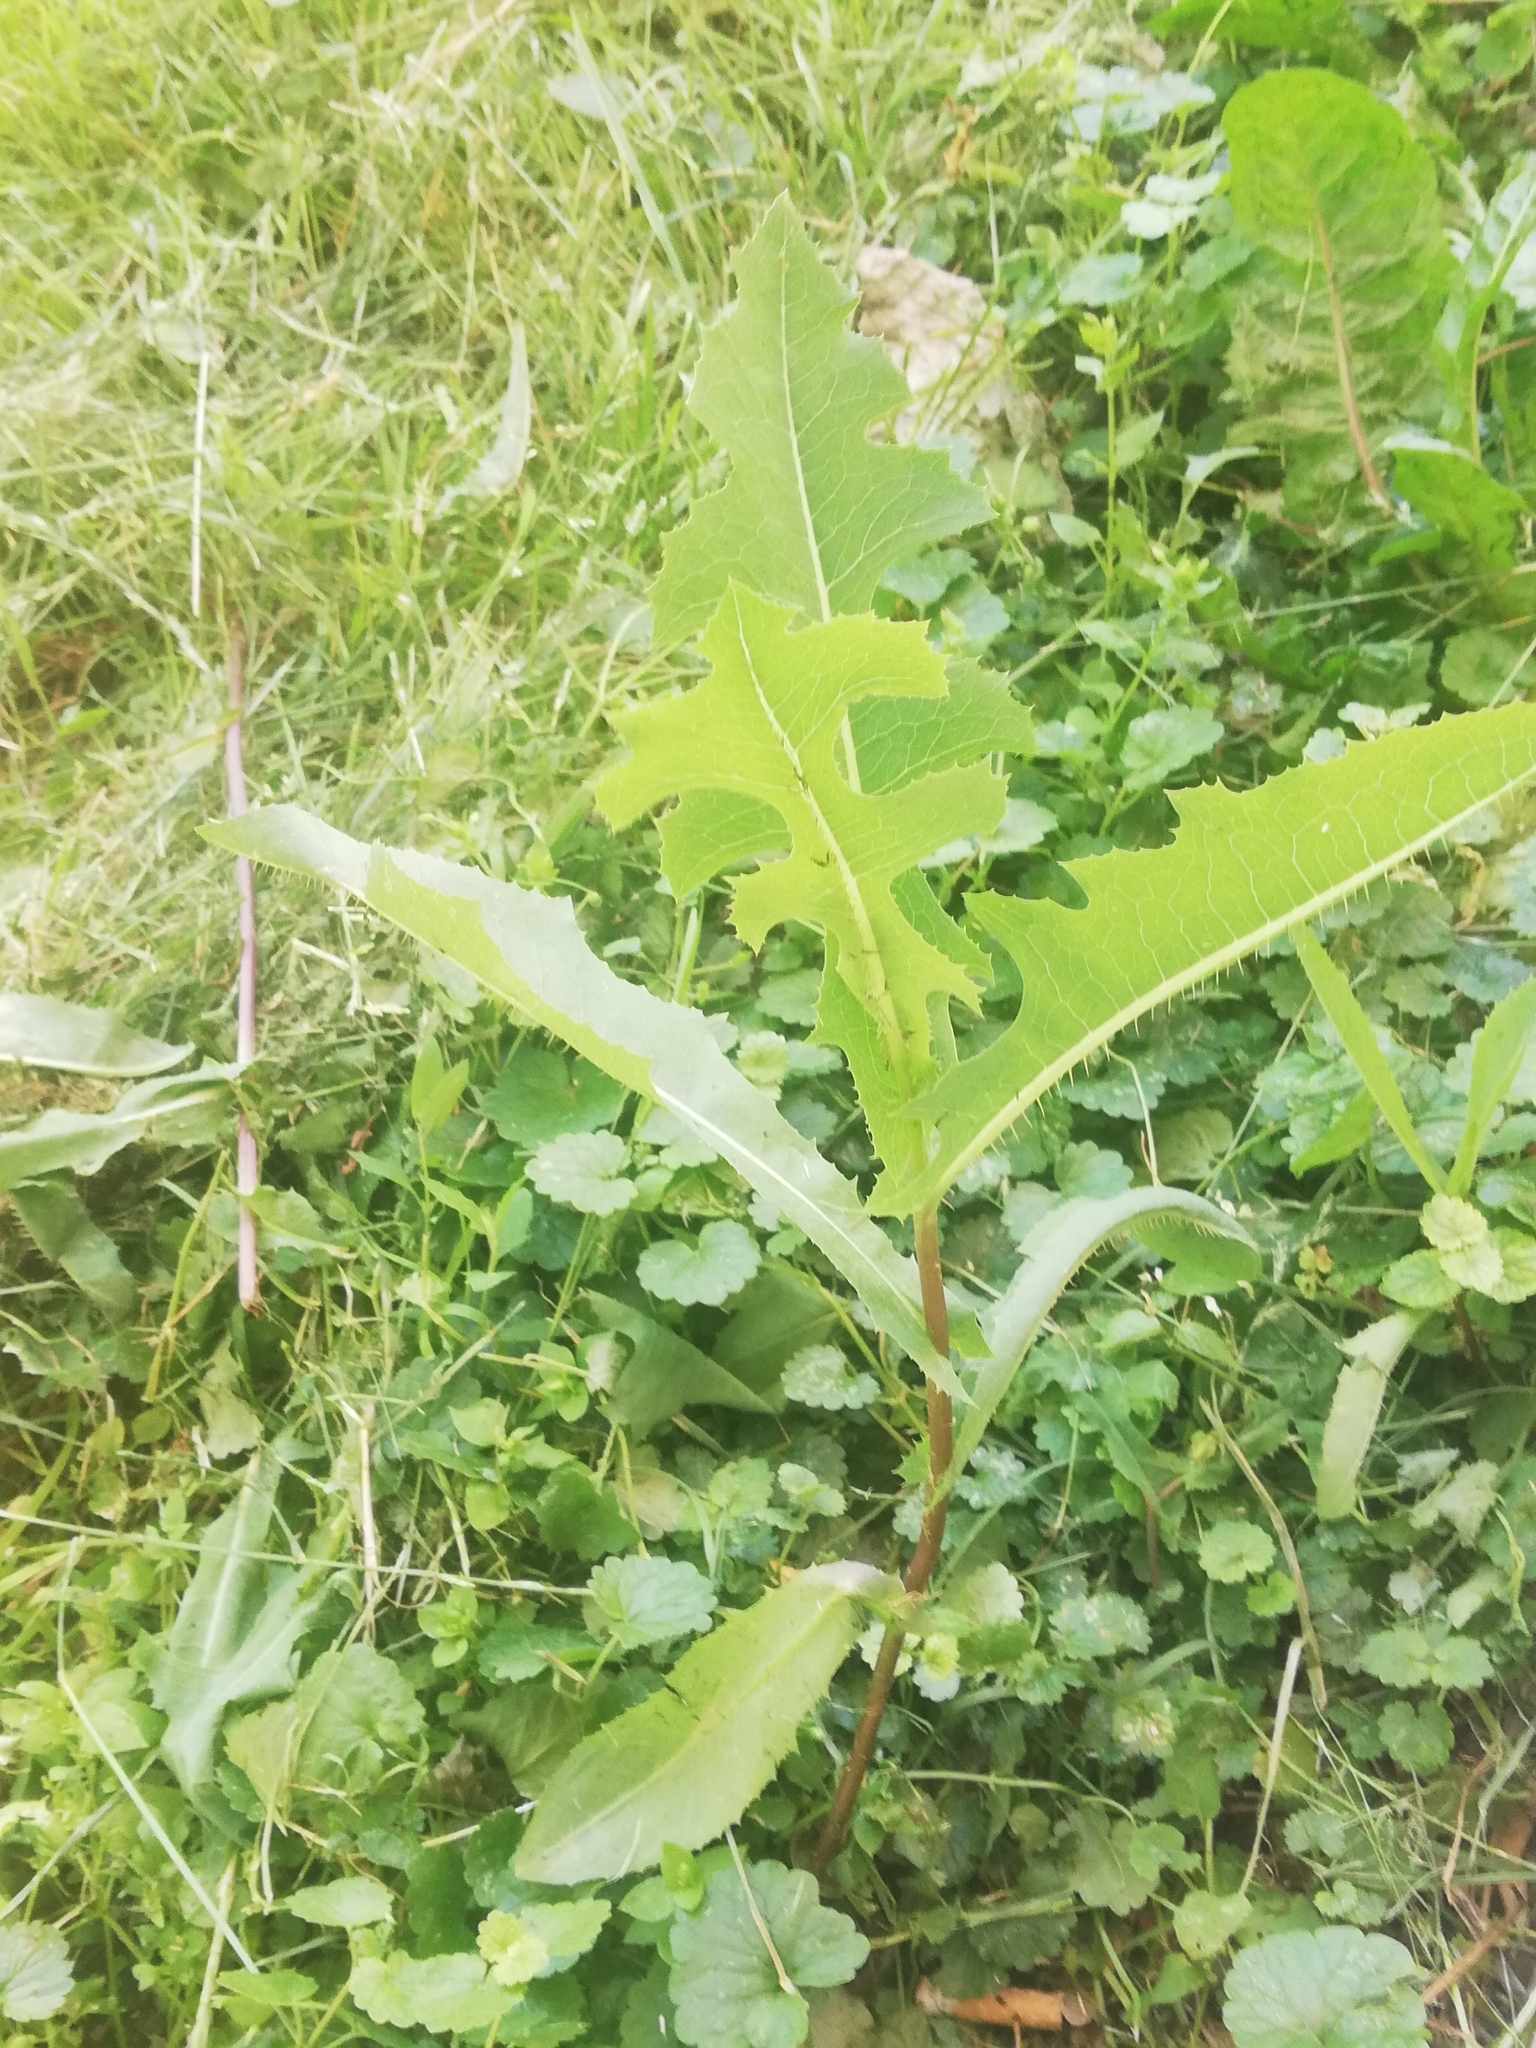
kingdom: Plantae
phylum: Tracheophyta
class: Magnoliopsida
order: Asterales
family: Asteraceae
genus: Lactuca
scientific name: Lactuca serriola
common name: Prickly lettuce
